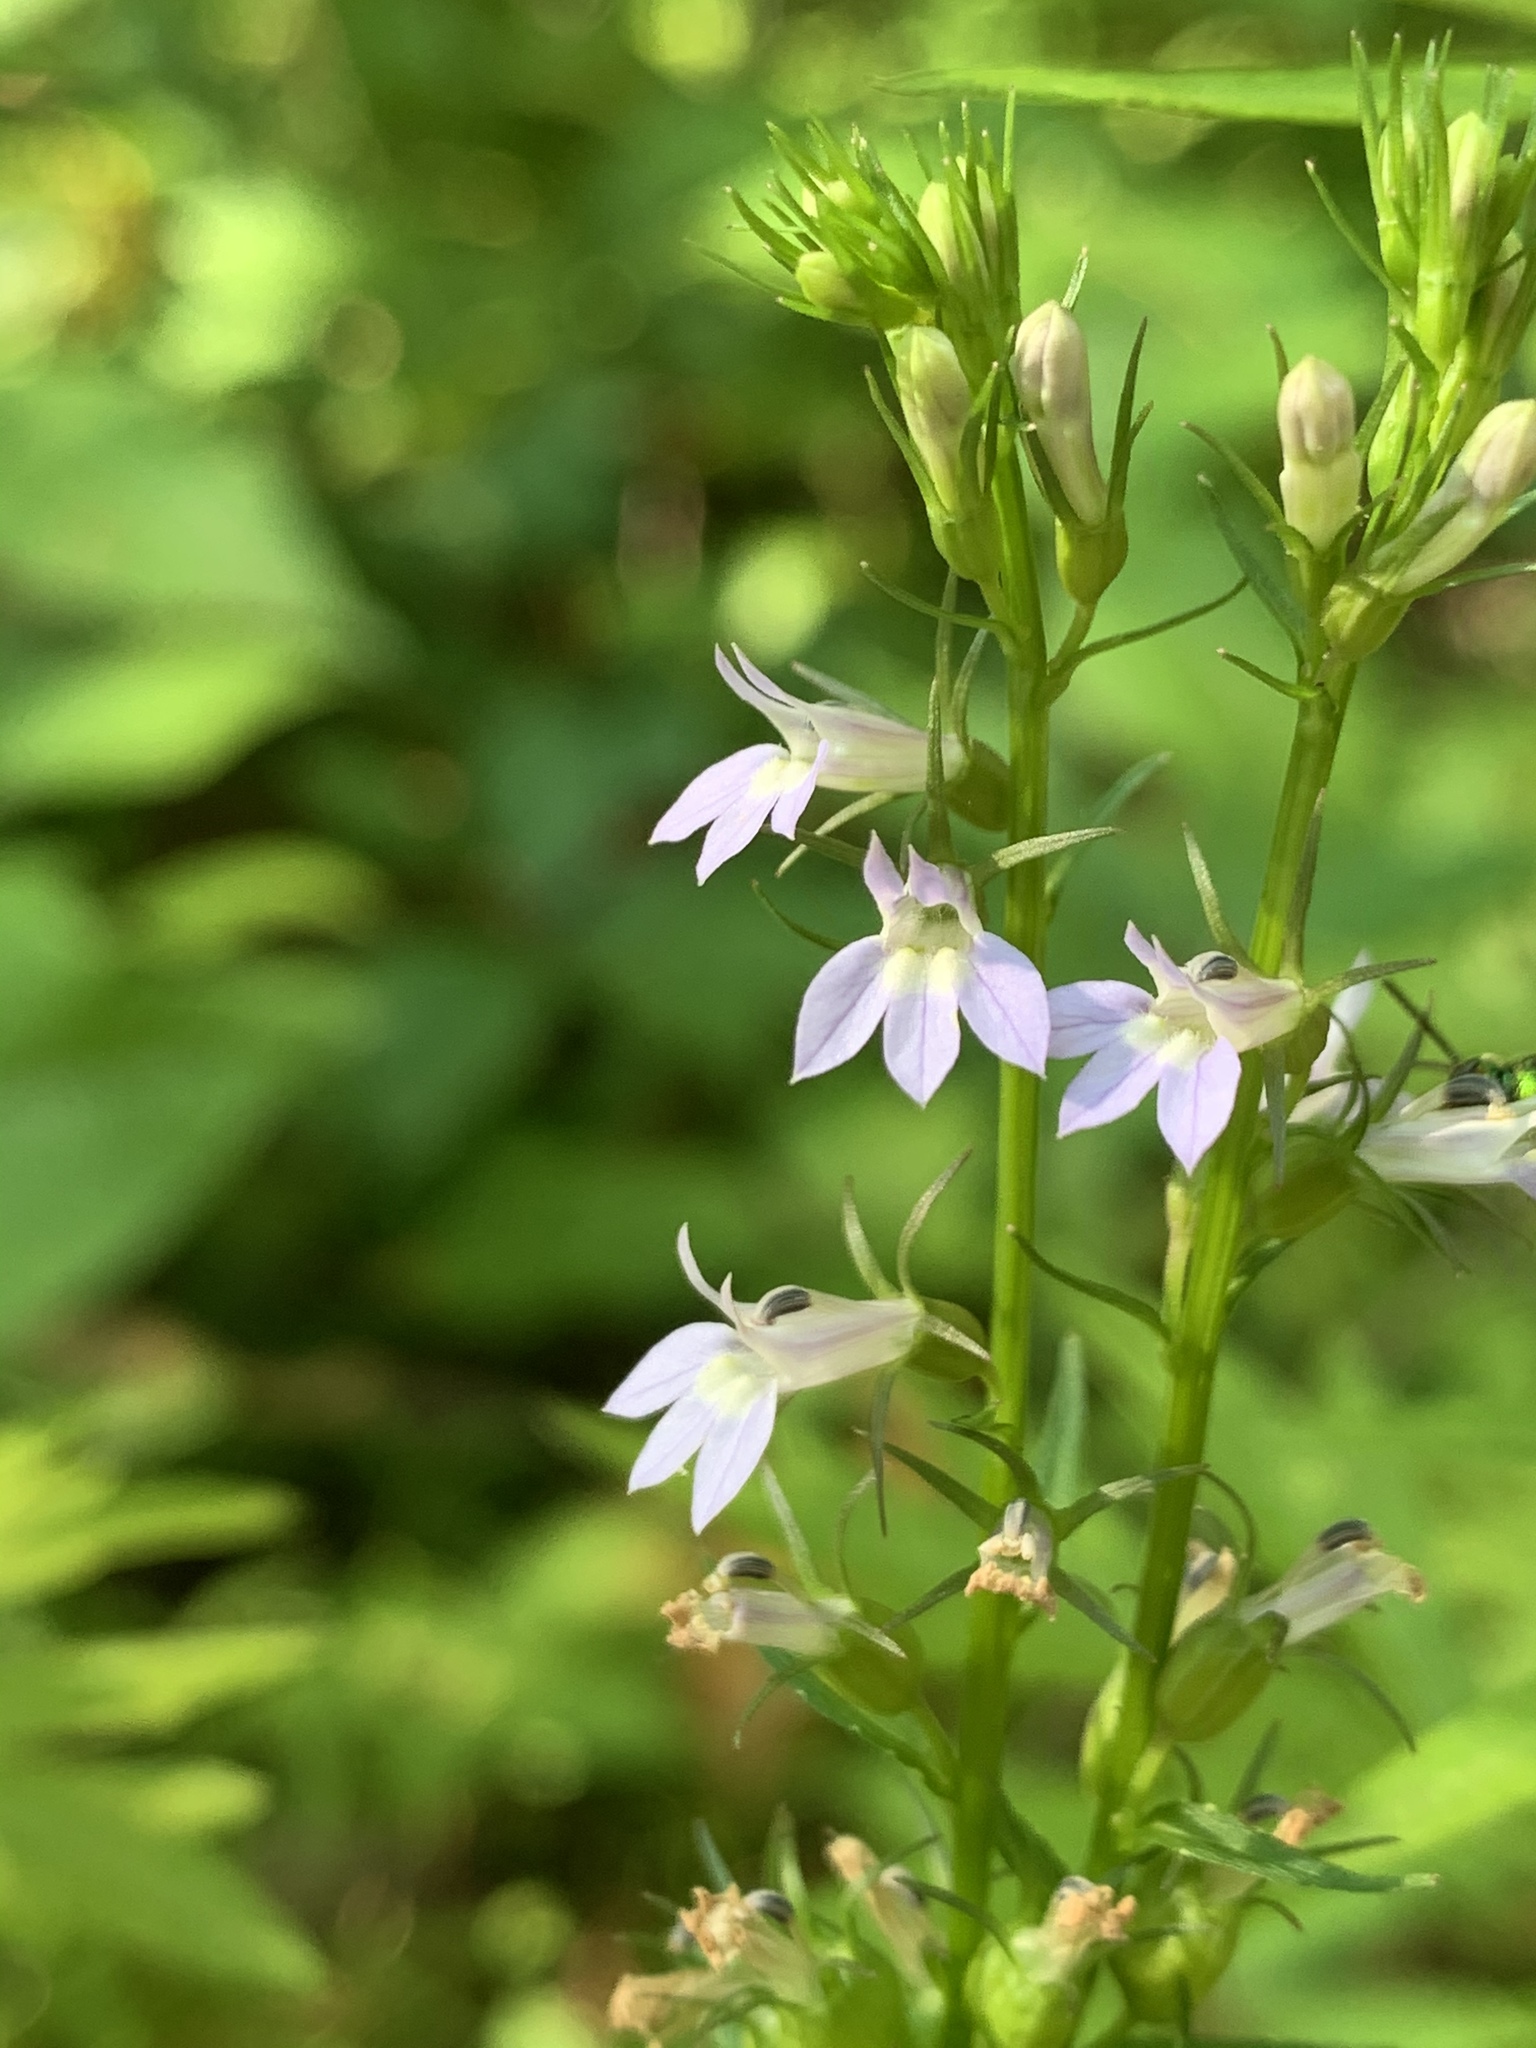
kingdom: Plantae
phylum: Tracheophyta
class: Magnoliopsida
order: Asterales
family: Campanulaceae
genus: Lobelia
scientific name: Lobelia inflata
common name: Indian tobacco
